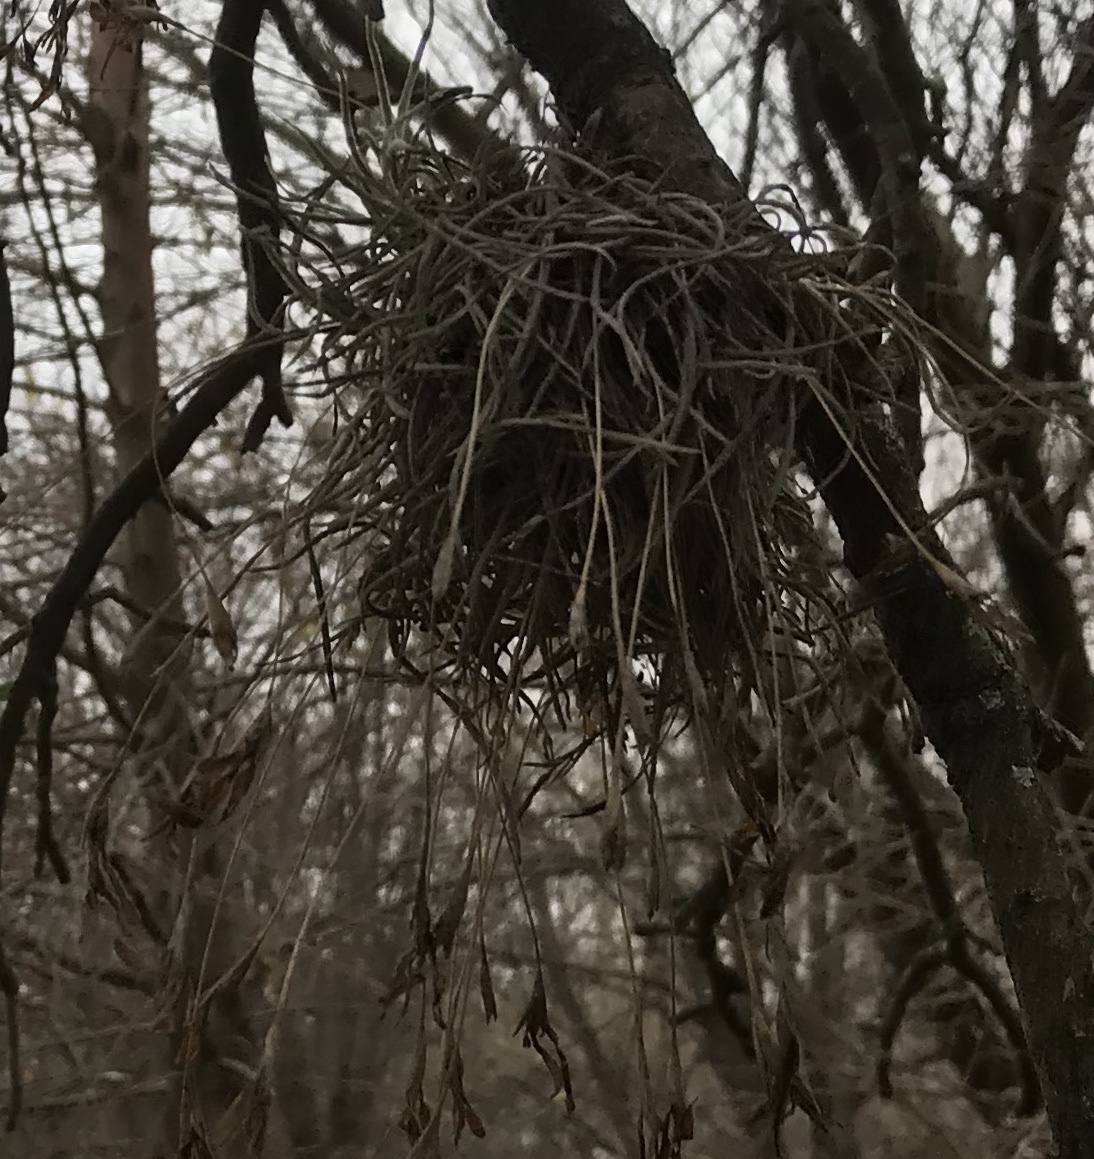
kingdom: Plantae
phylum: Tracheophyta
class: Liliopsida
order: Poales
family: Bromeliaceae
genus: Tillandsia
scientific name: Tillandsia recurvata
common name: Small ballmoss
